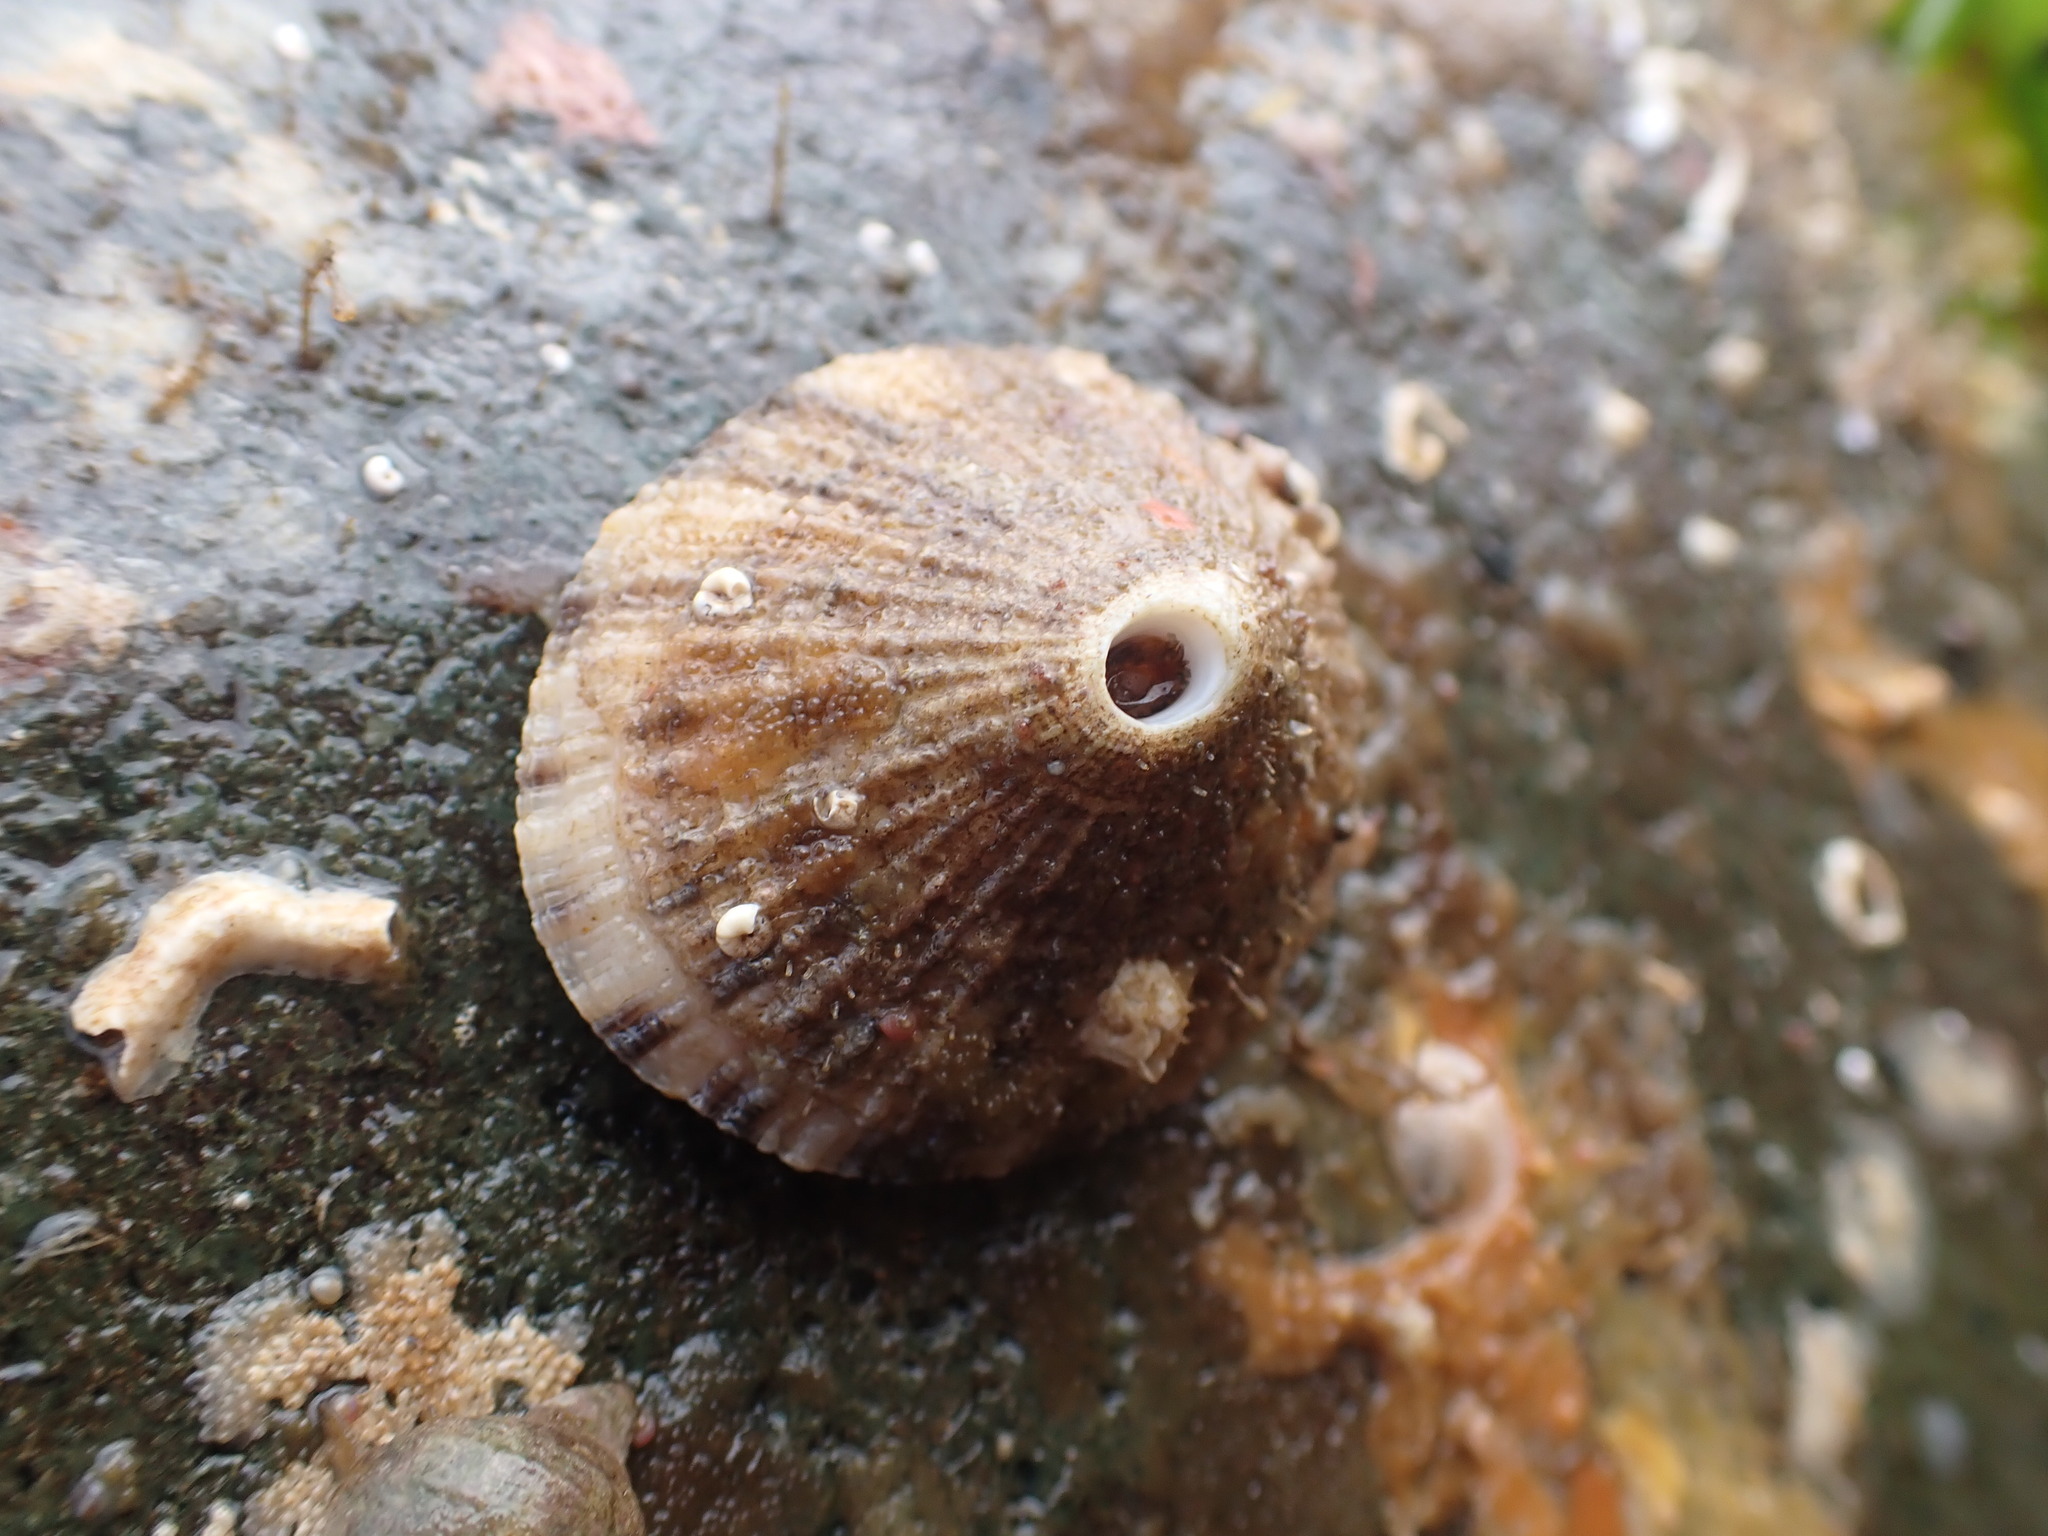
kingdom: Animalia
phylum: Mollusca
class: Gastropoda
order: Lepetellida
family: Fissurellidae
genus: Diodora
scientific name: Diodora aspera
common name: Rough keyhole limpet
